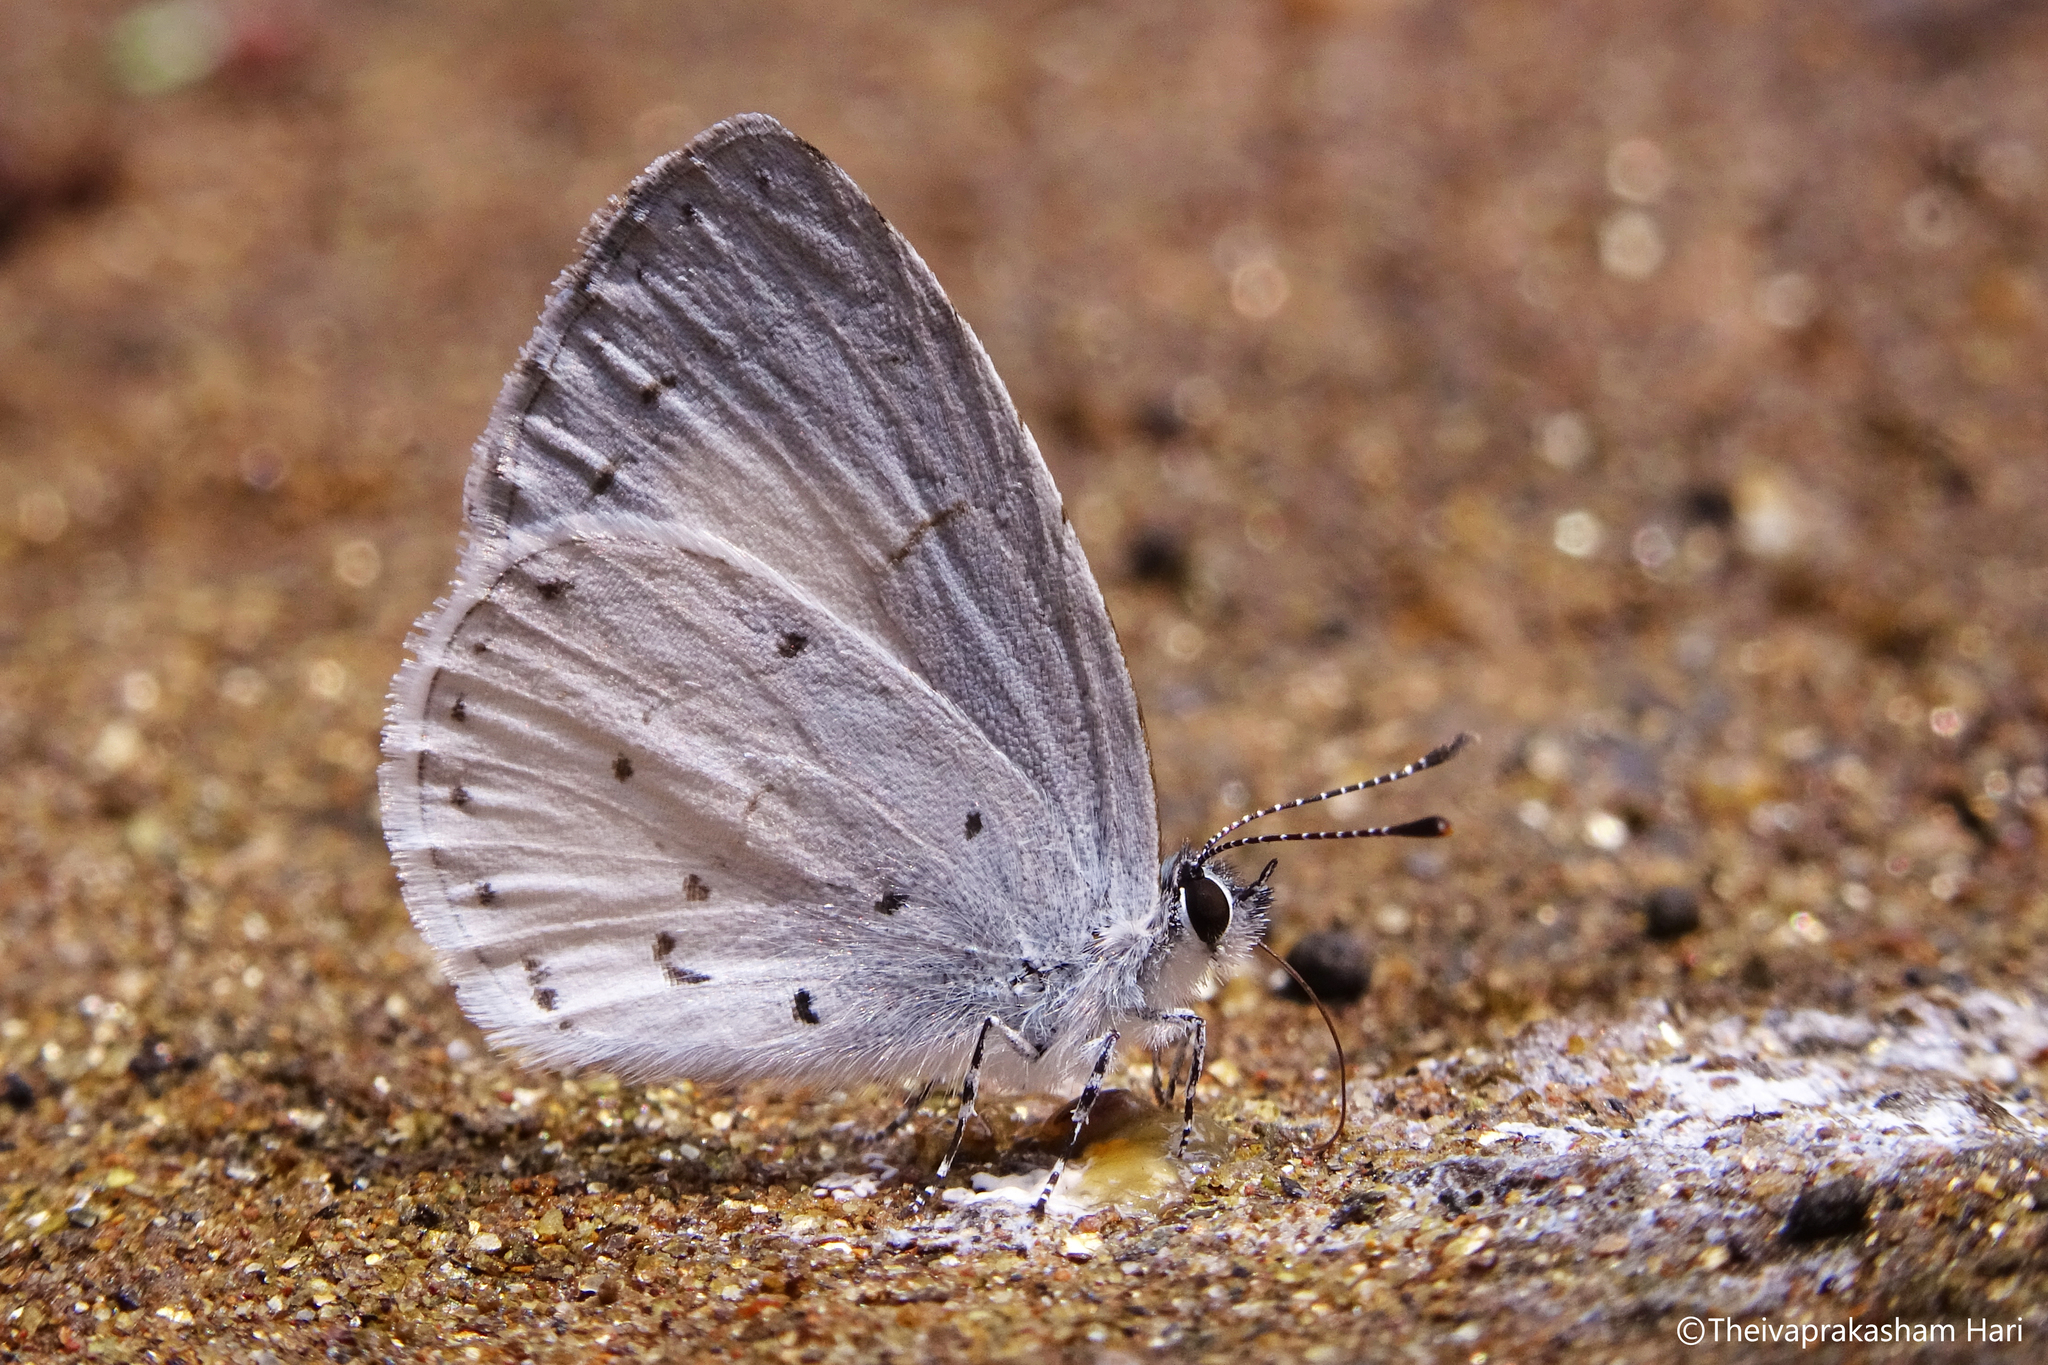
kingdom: Animalia
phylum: Arthropoda
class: Insecta
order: Lepidoptera
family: Lycaenidae
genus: Udara
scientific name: Udara akasa
